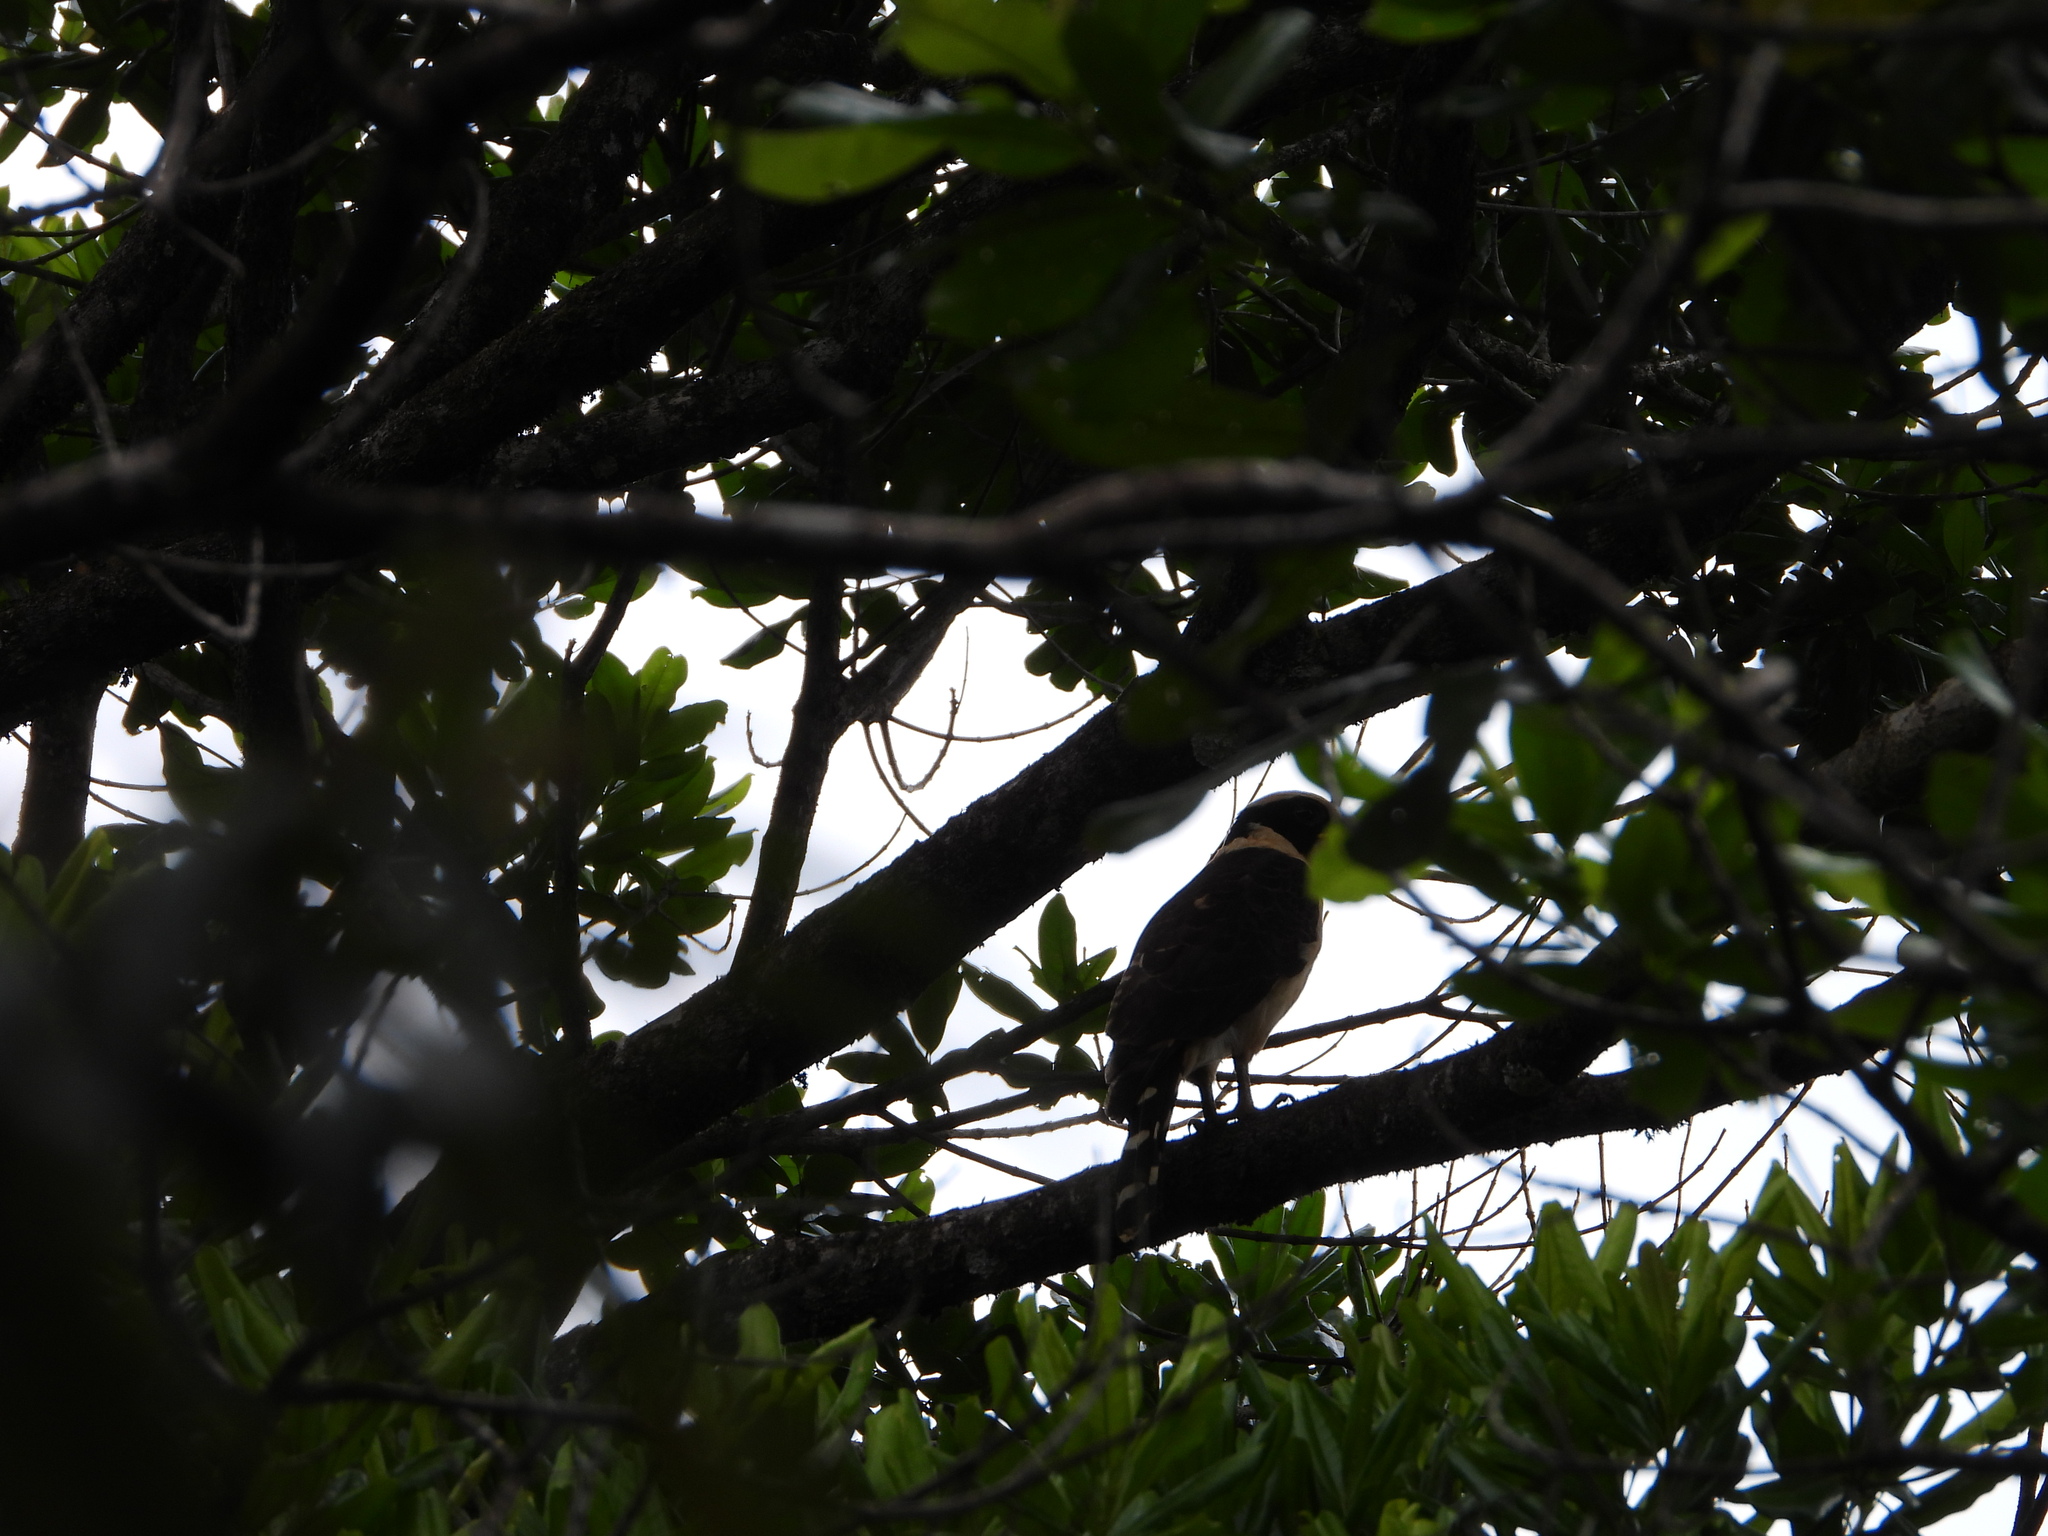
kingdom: Animalia
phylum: Chordata
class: Aves
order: Falconiformes
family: Falconidae
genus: Herpetotheres
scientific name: Herpetotheres cachinnans
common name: Laughing falcon
